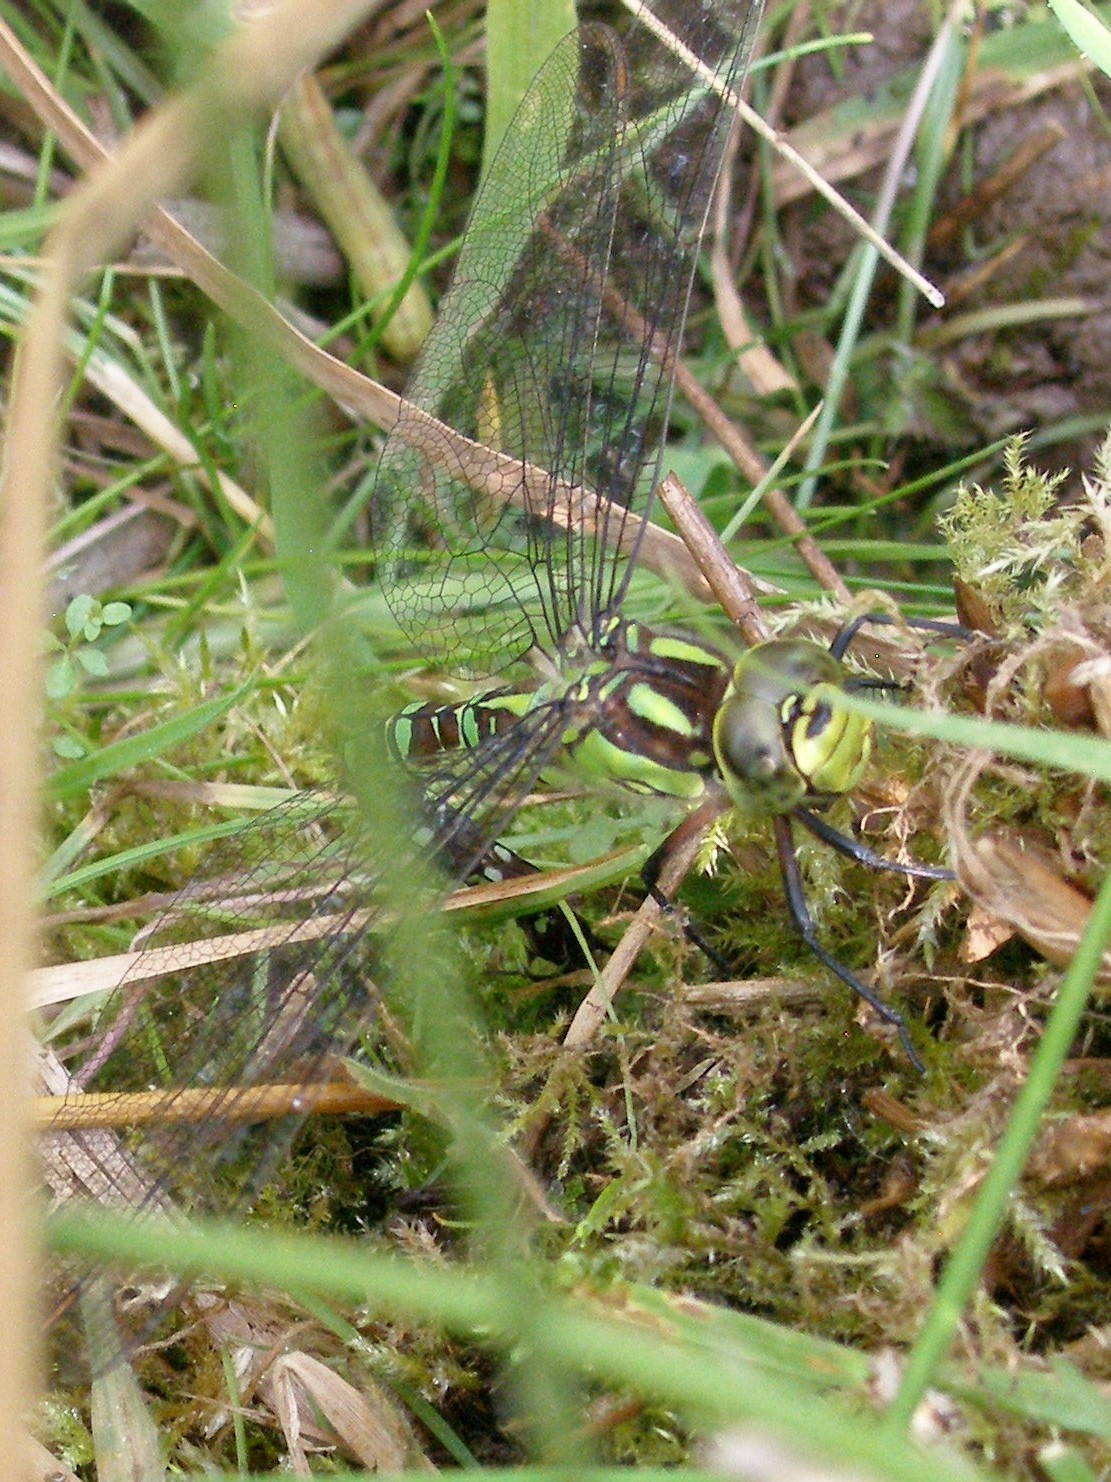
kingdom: Animalia
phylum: Arthropoda
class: Insecta
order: Odonata
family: Aeshnidae
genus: Aeshna
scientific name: Aeshna cyanea
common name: Southern hawker
